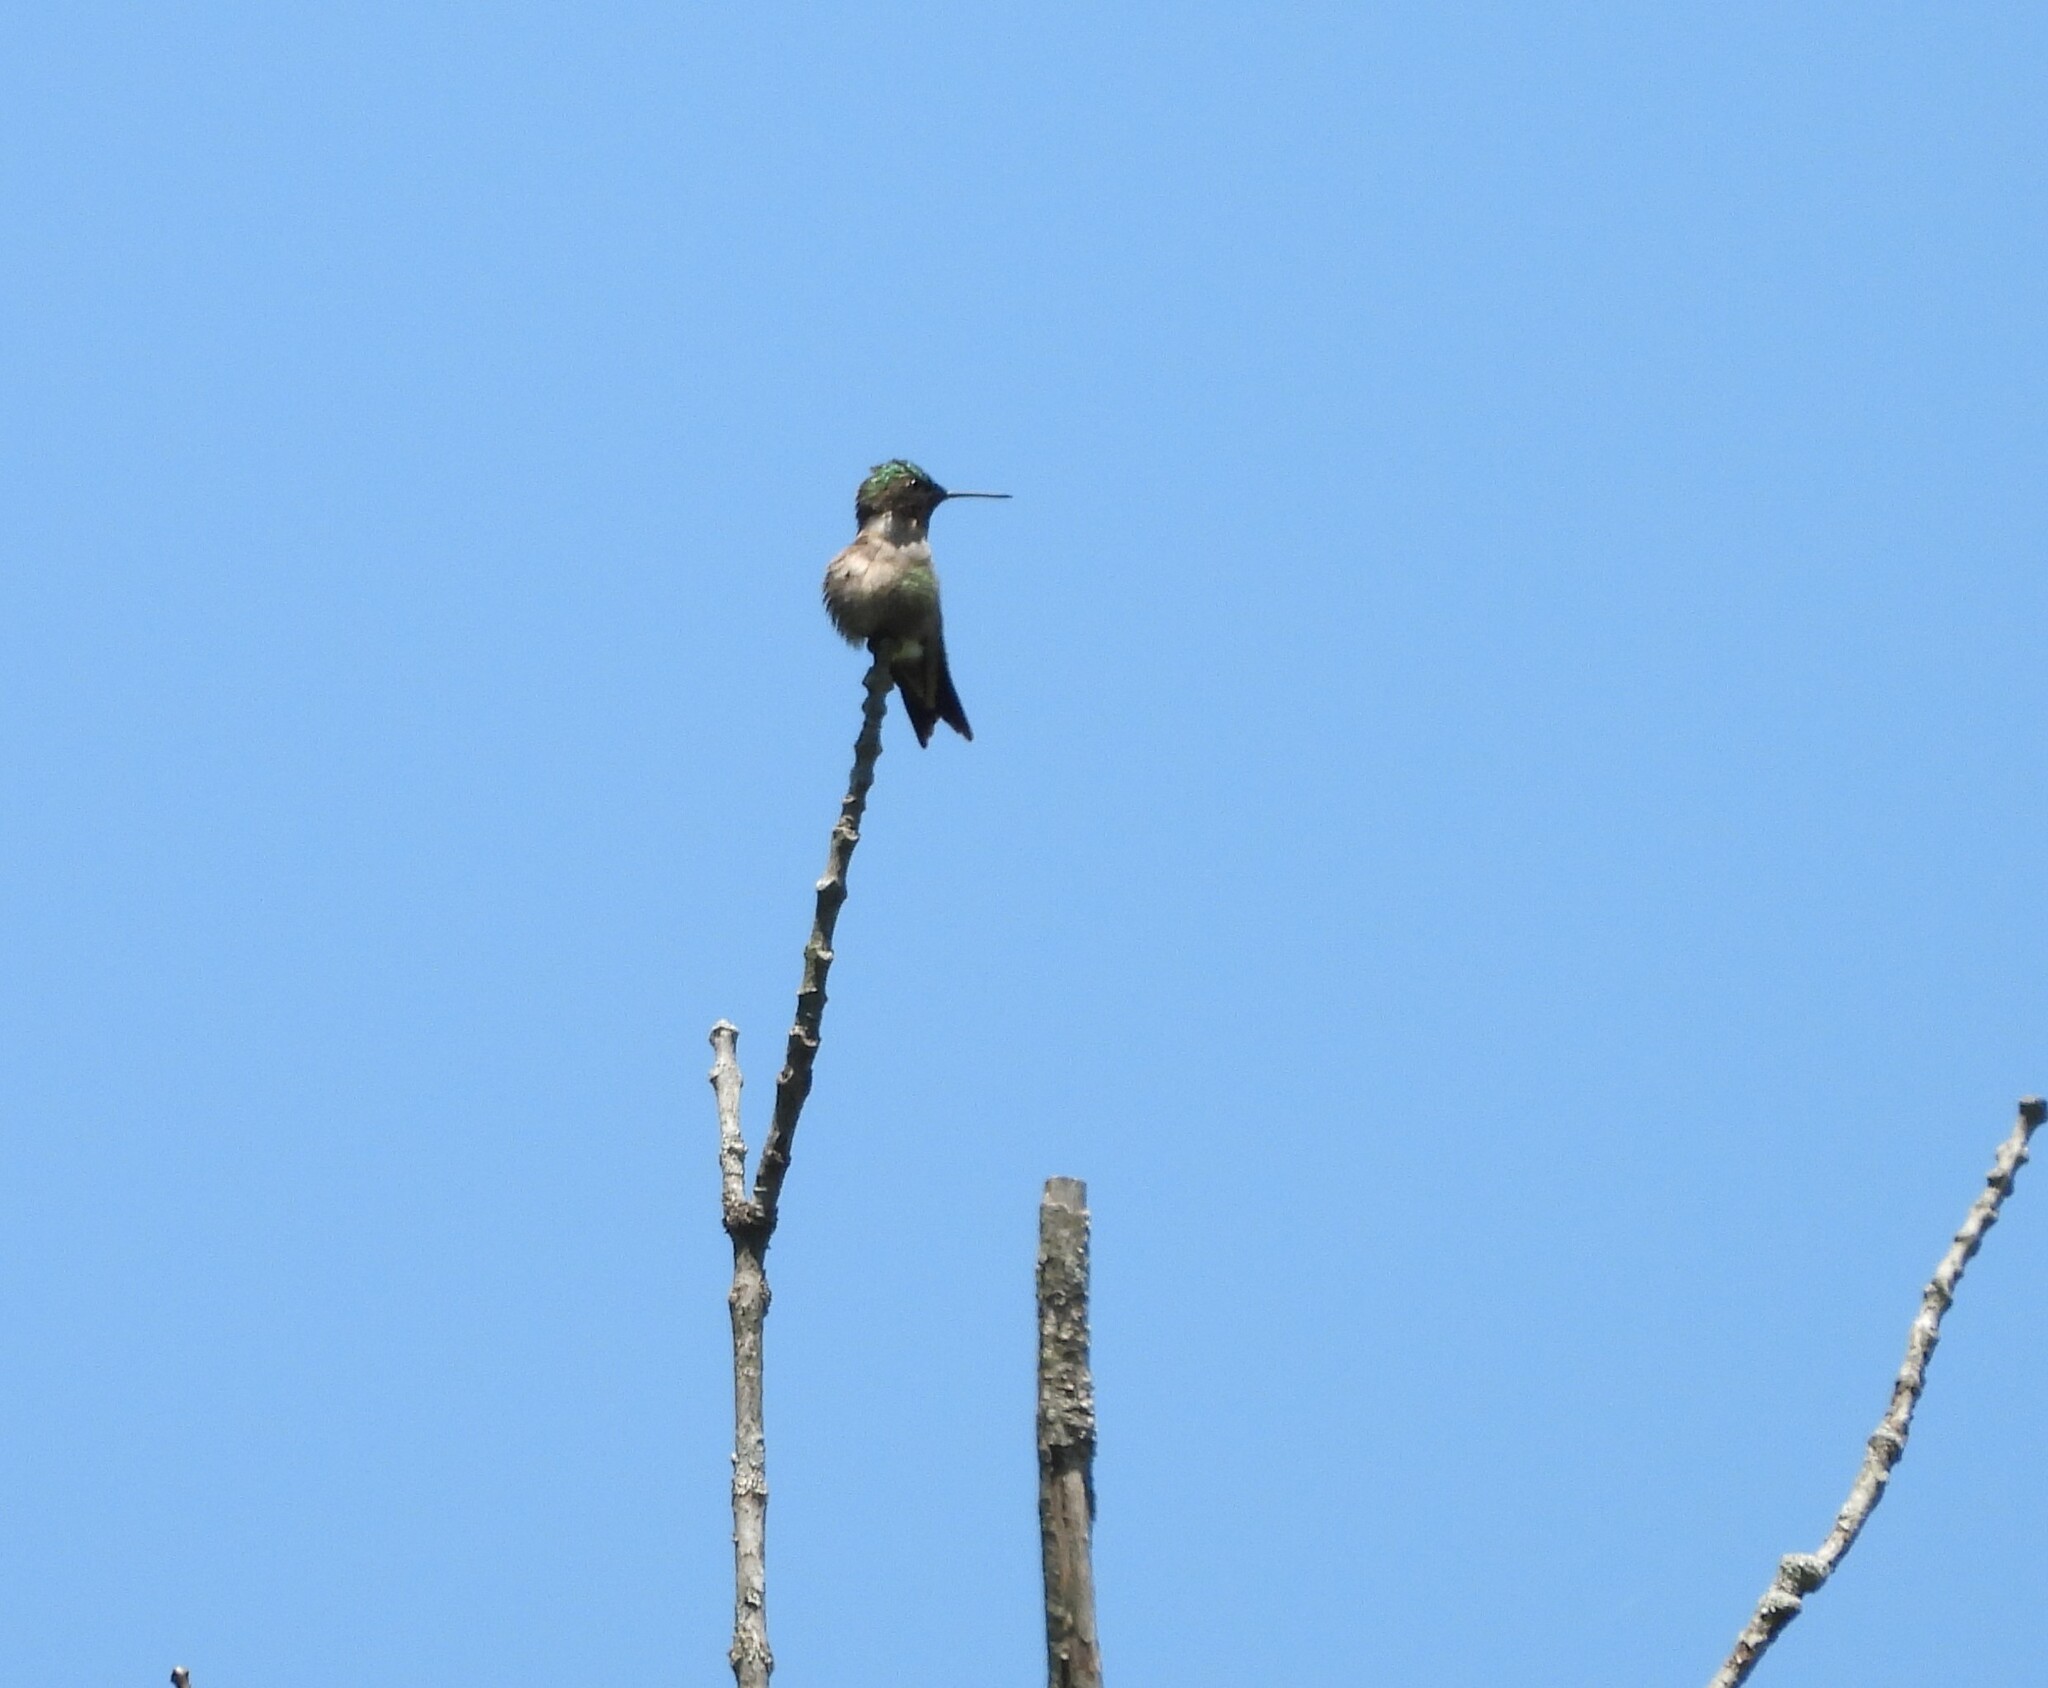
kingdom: Animalia
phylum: Chordata
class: Aves
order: Apodiformes
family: Trochilidae
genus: Archilochus
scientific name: Archilochus colubris
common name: Ruby-throated hummingbird
